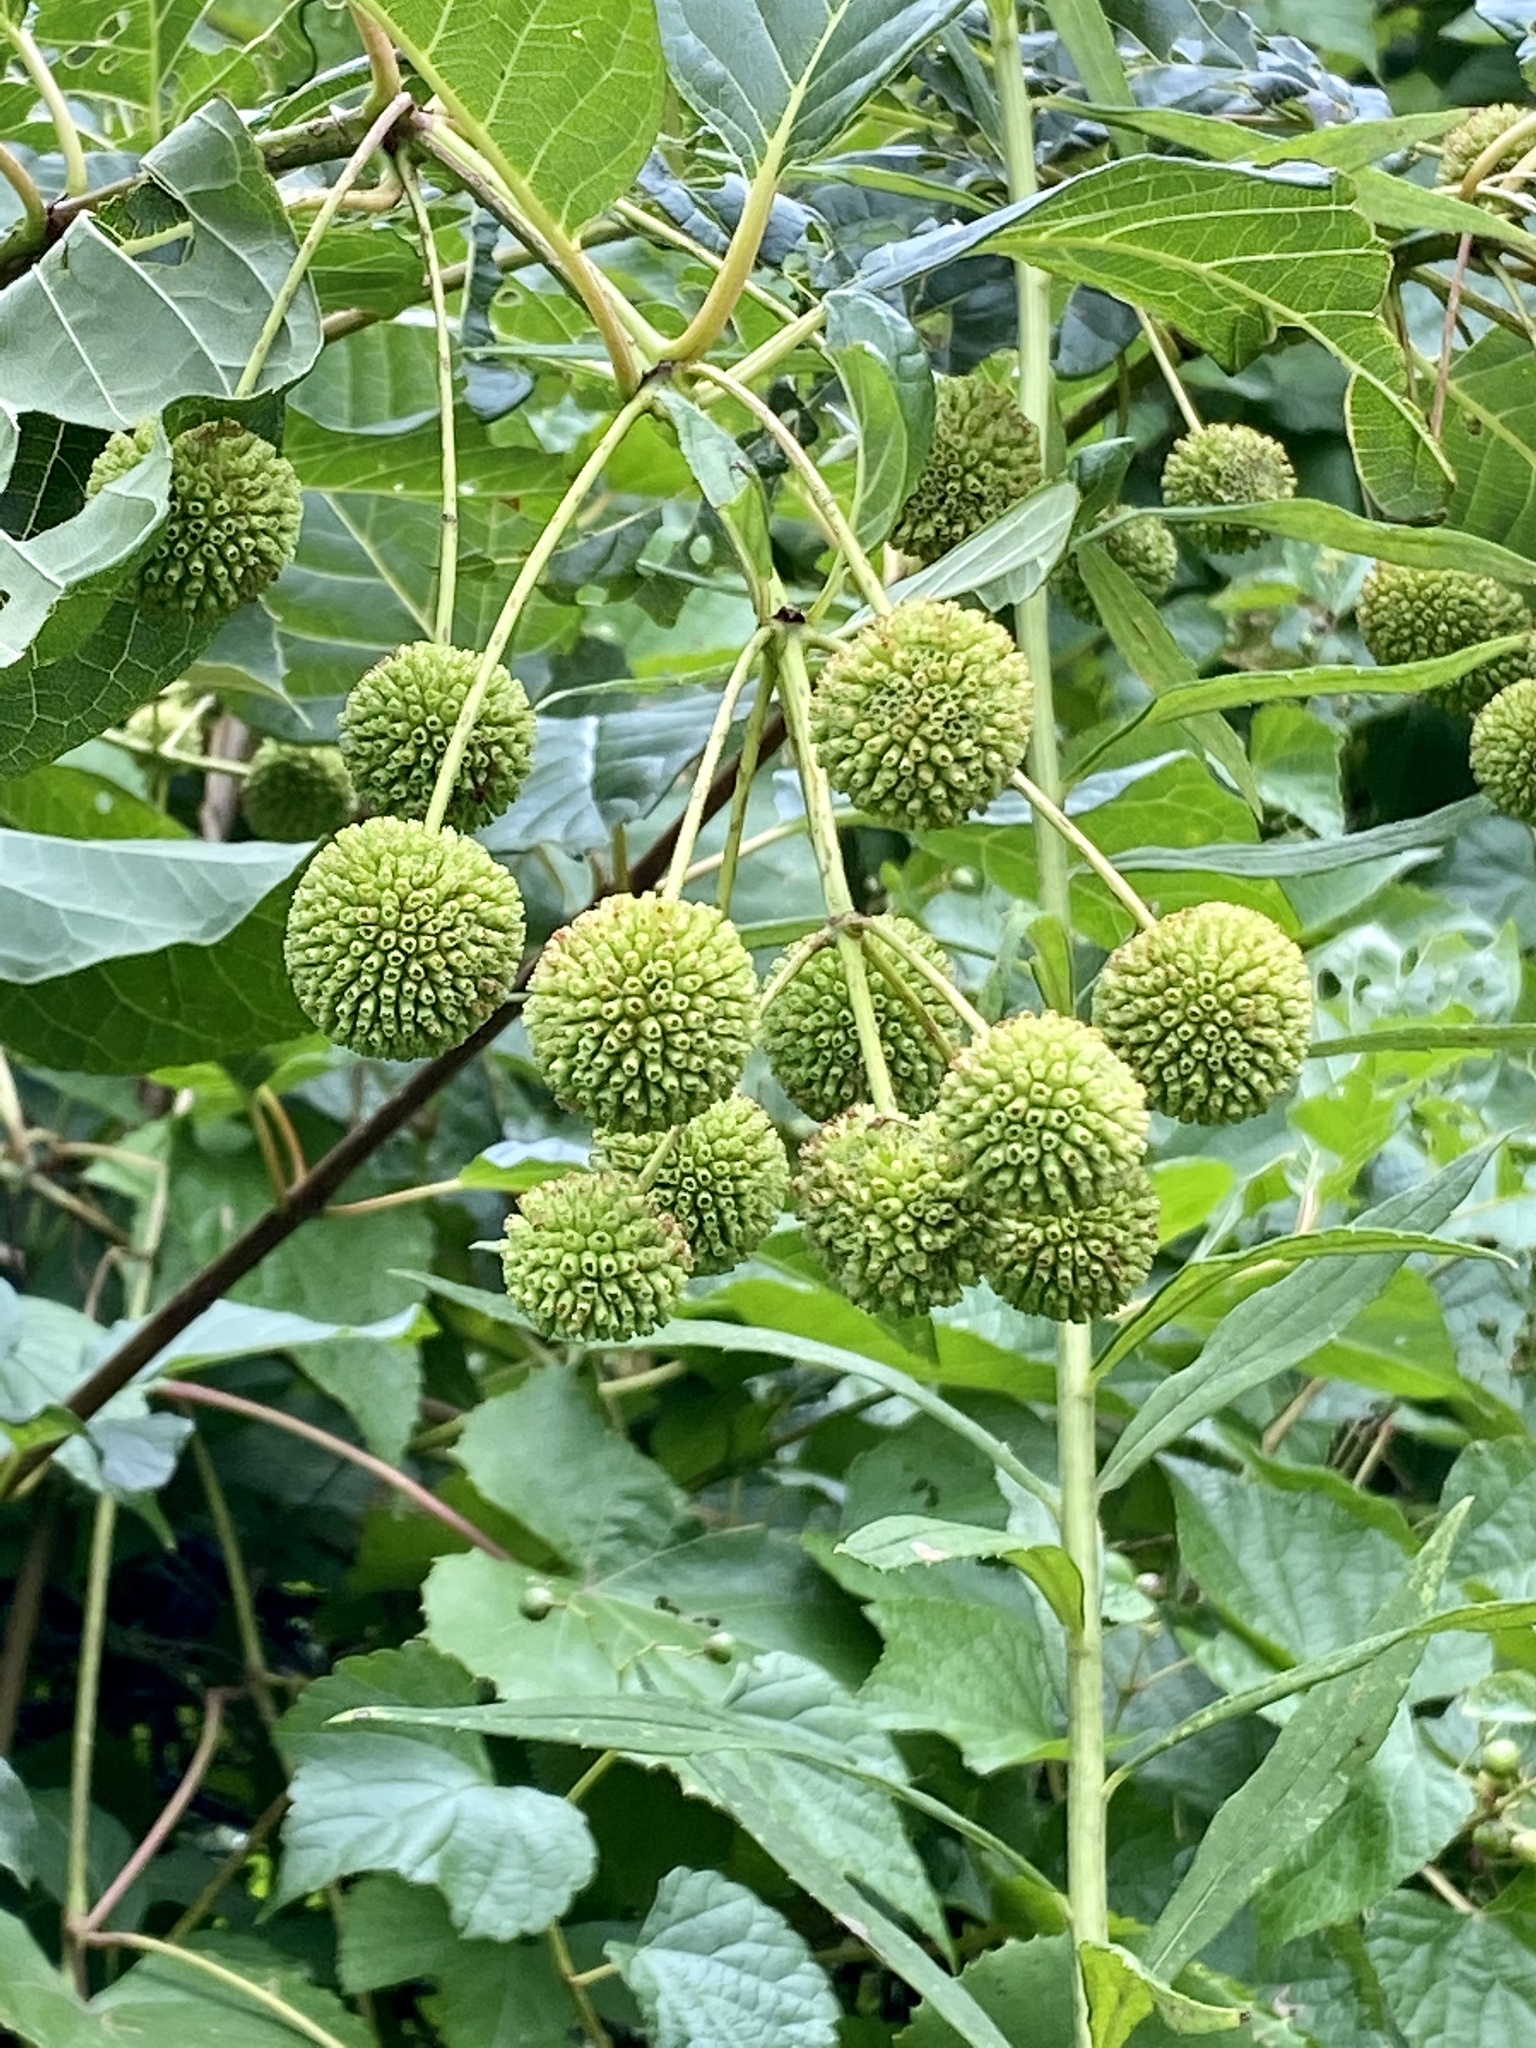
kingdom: Plantae
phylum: Tracheophyta
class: Magnoliopsida
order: Gentianales
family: Rubiaceae
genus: Cephalanthus
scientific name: Cephalanthus occidentalis
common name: Button-willow
